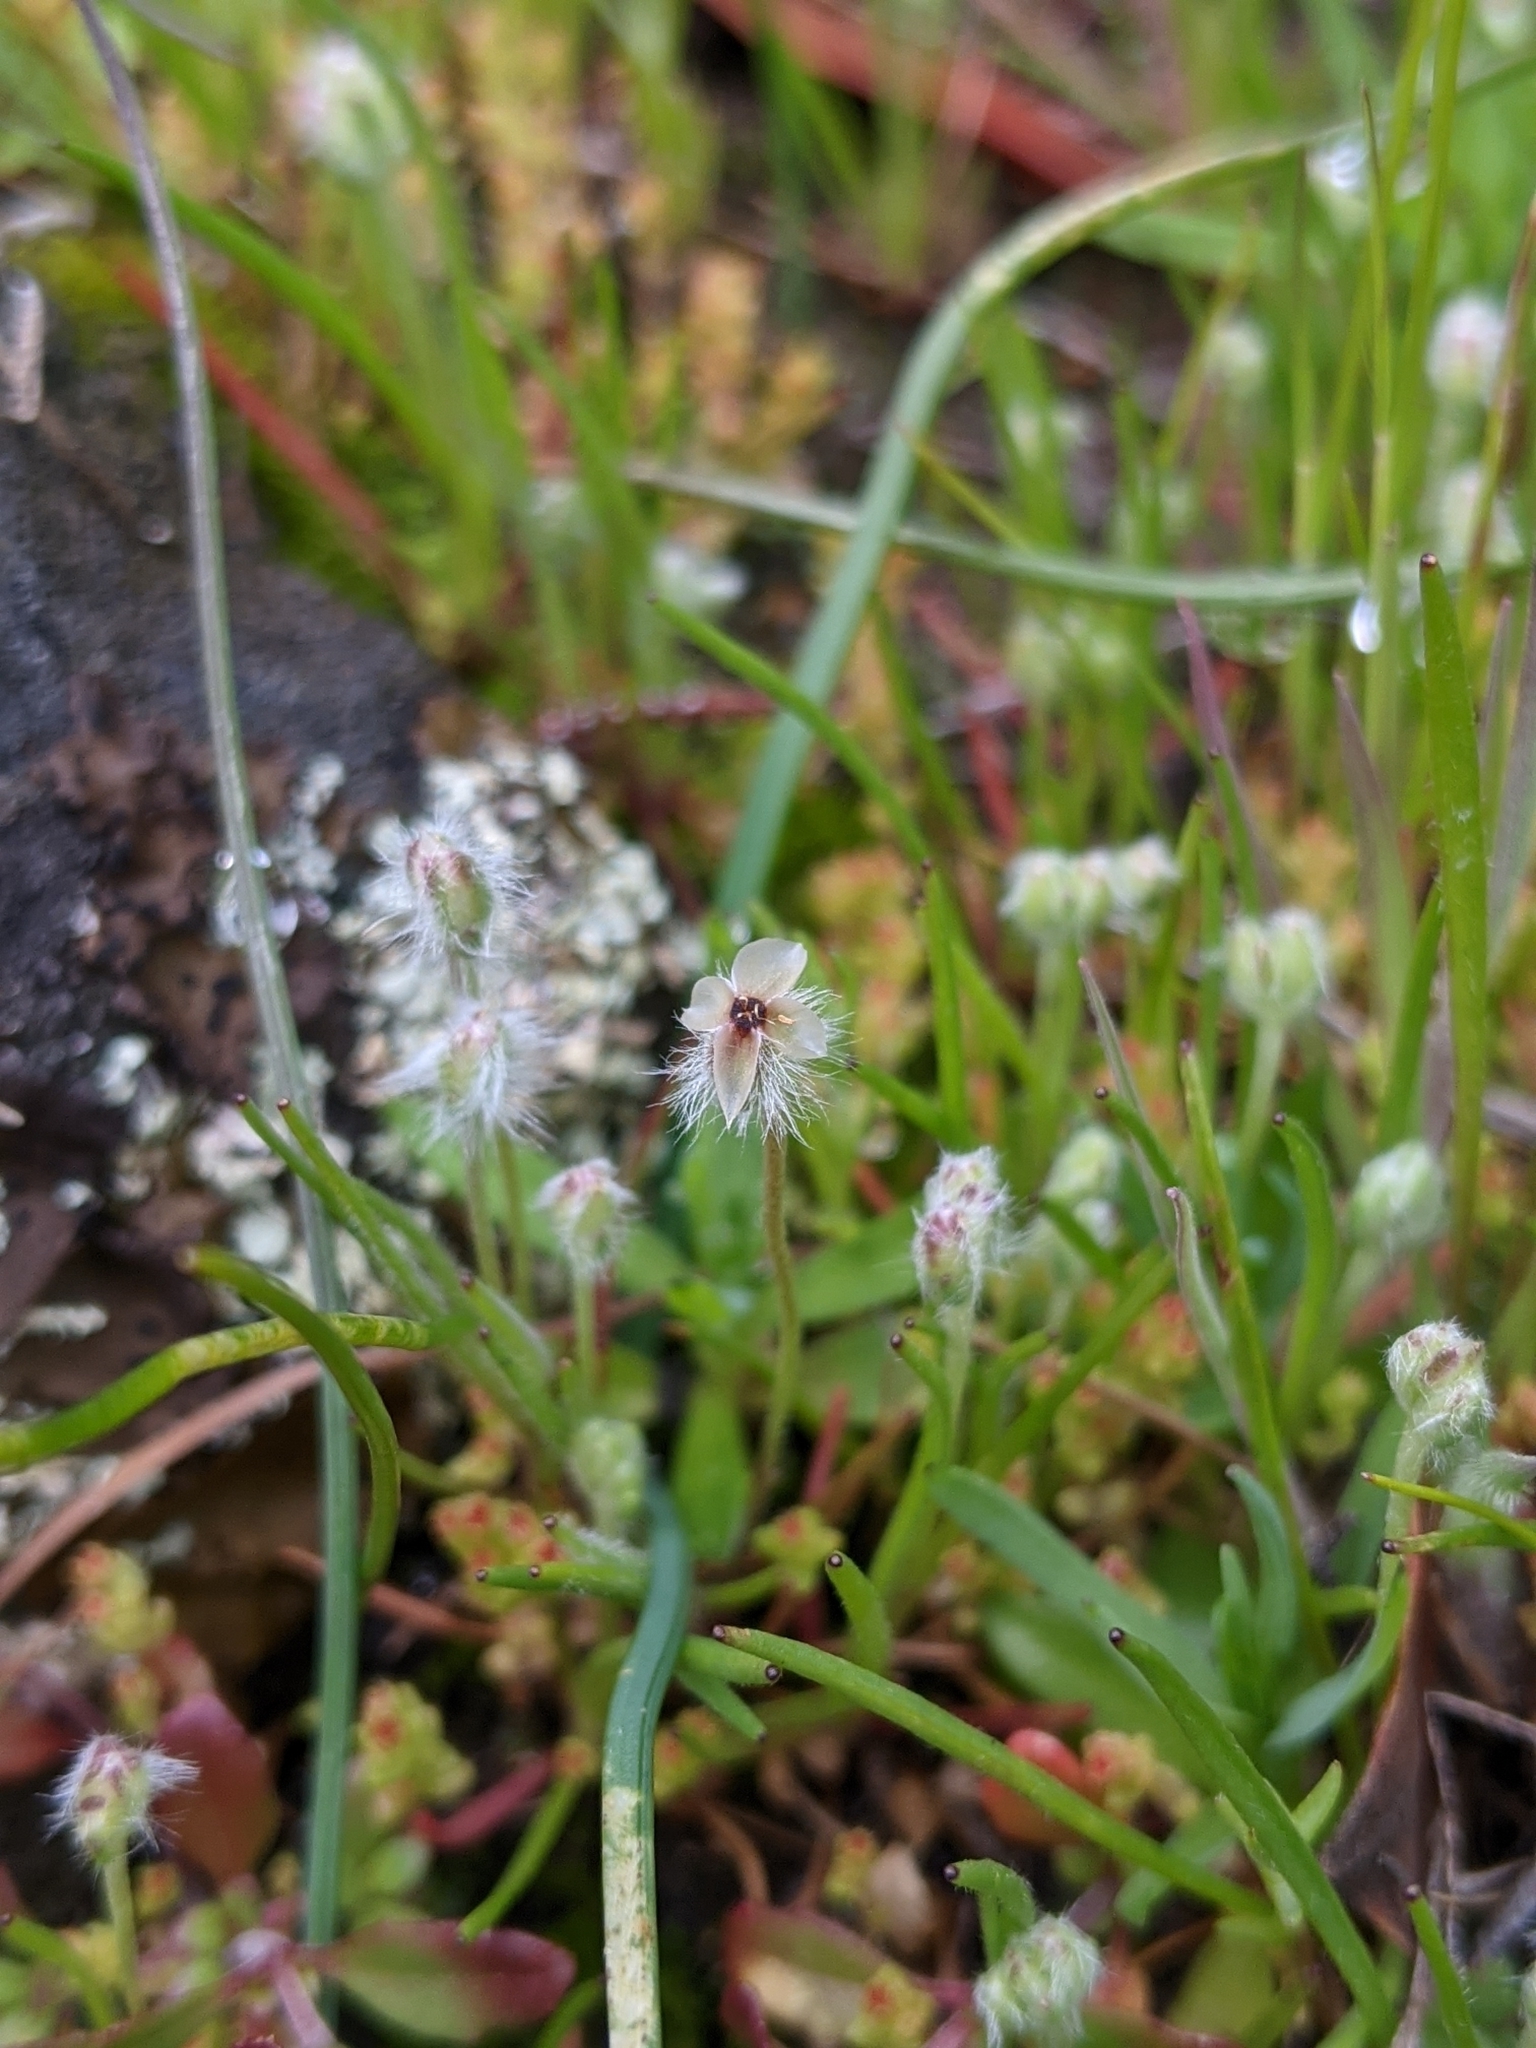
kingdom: Plantae
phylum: Tracheophyta
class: Magnoliopsida
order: Lamiales
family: Plantaginaceae
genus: Plantago
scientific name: Plantago erecta
